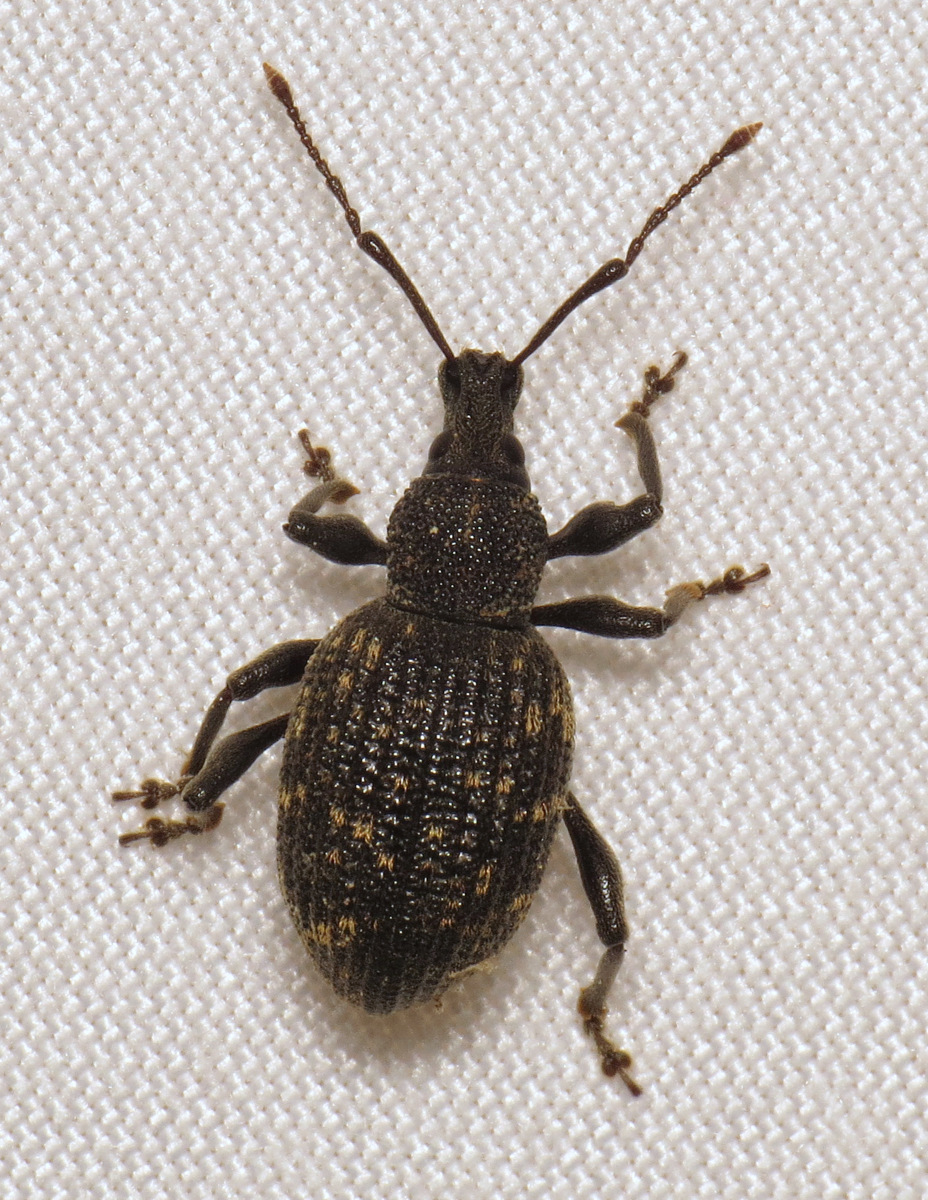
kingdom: Animalia
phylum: Arthropoda
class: Insecta
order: Coleoptera
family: Curculionidae
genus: Otiorhynchus
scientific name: Otiorhynchus sulcatus
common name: Black vine weevil
